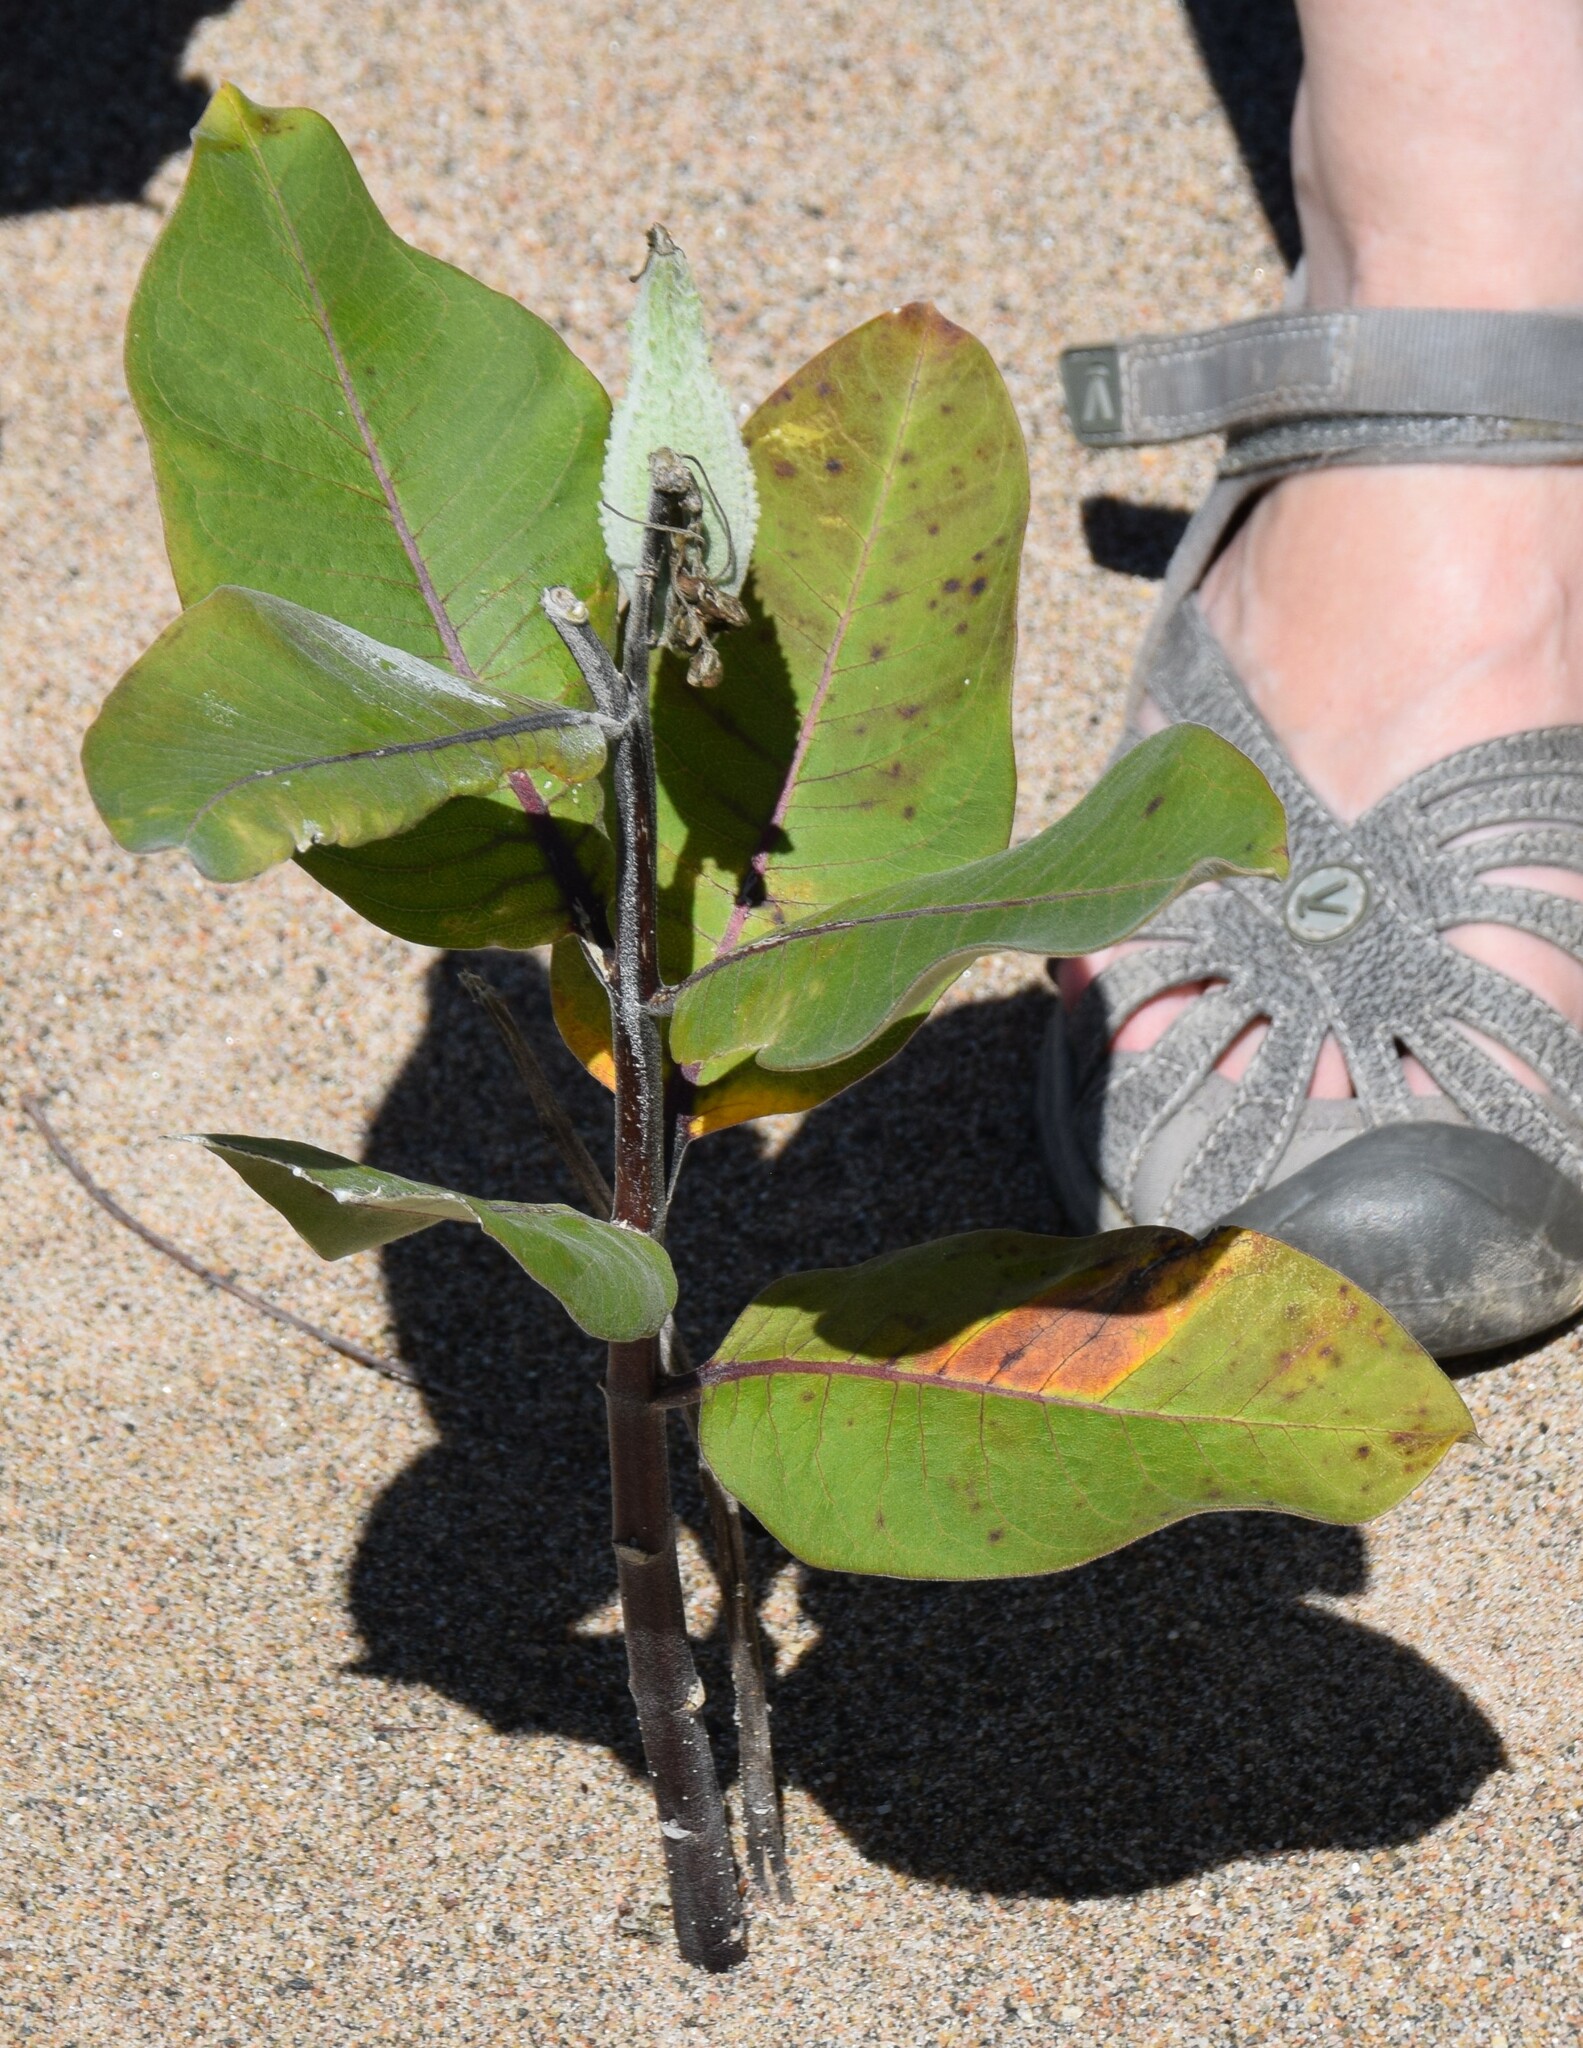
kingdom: Plantae
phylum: Tracheophyta
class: Magnoliopsida
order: Gentianales
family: Apocynaceae
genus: Asclepias
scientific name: Asclepias syriaca
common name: Common milkweed
